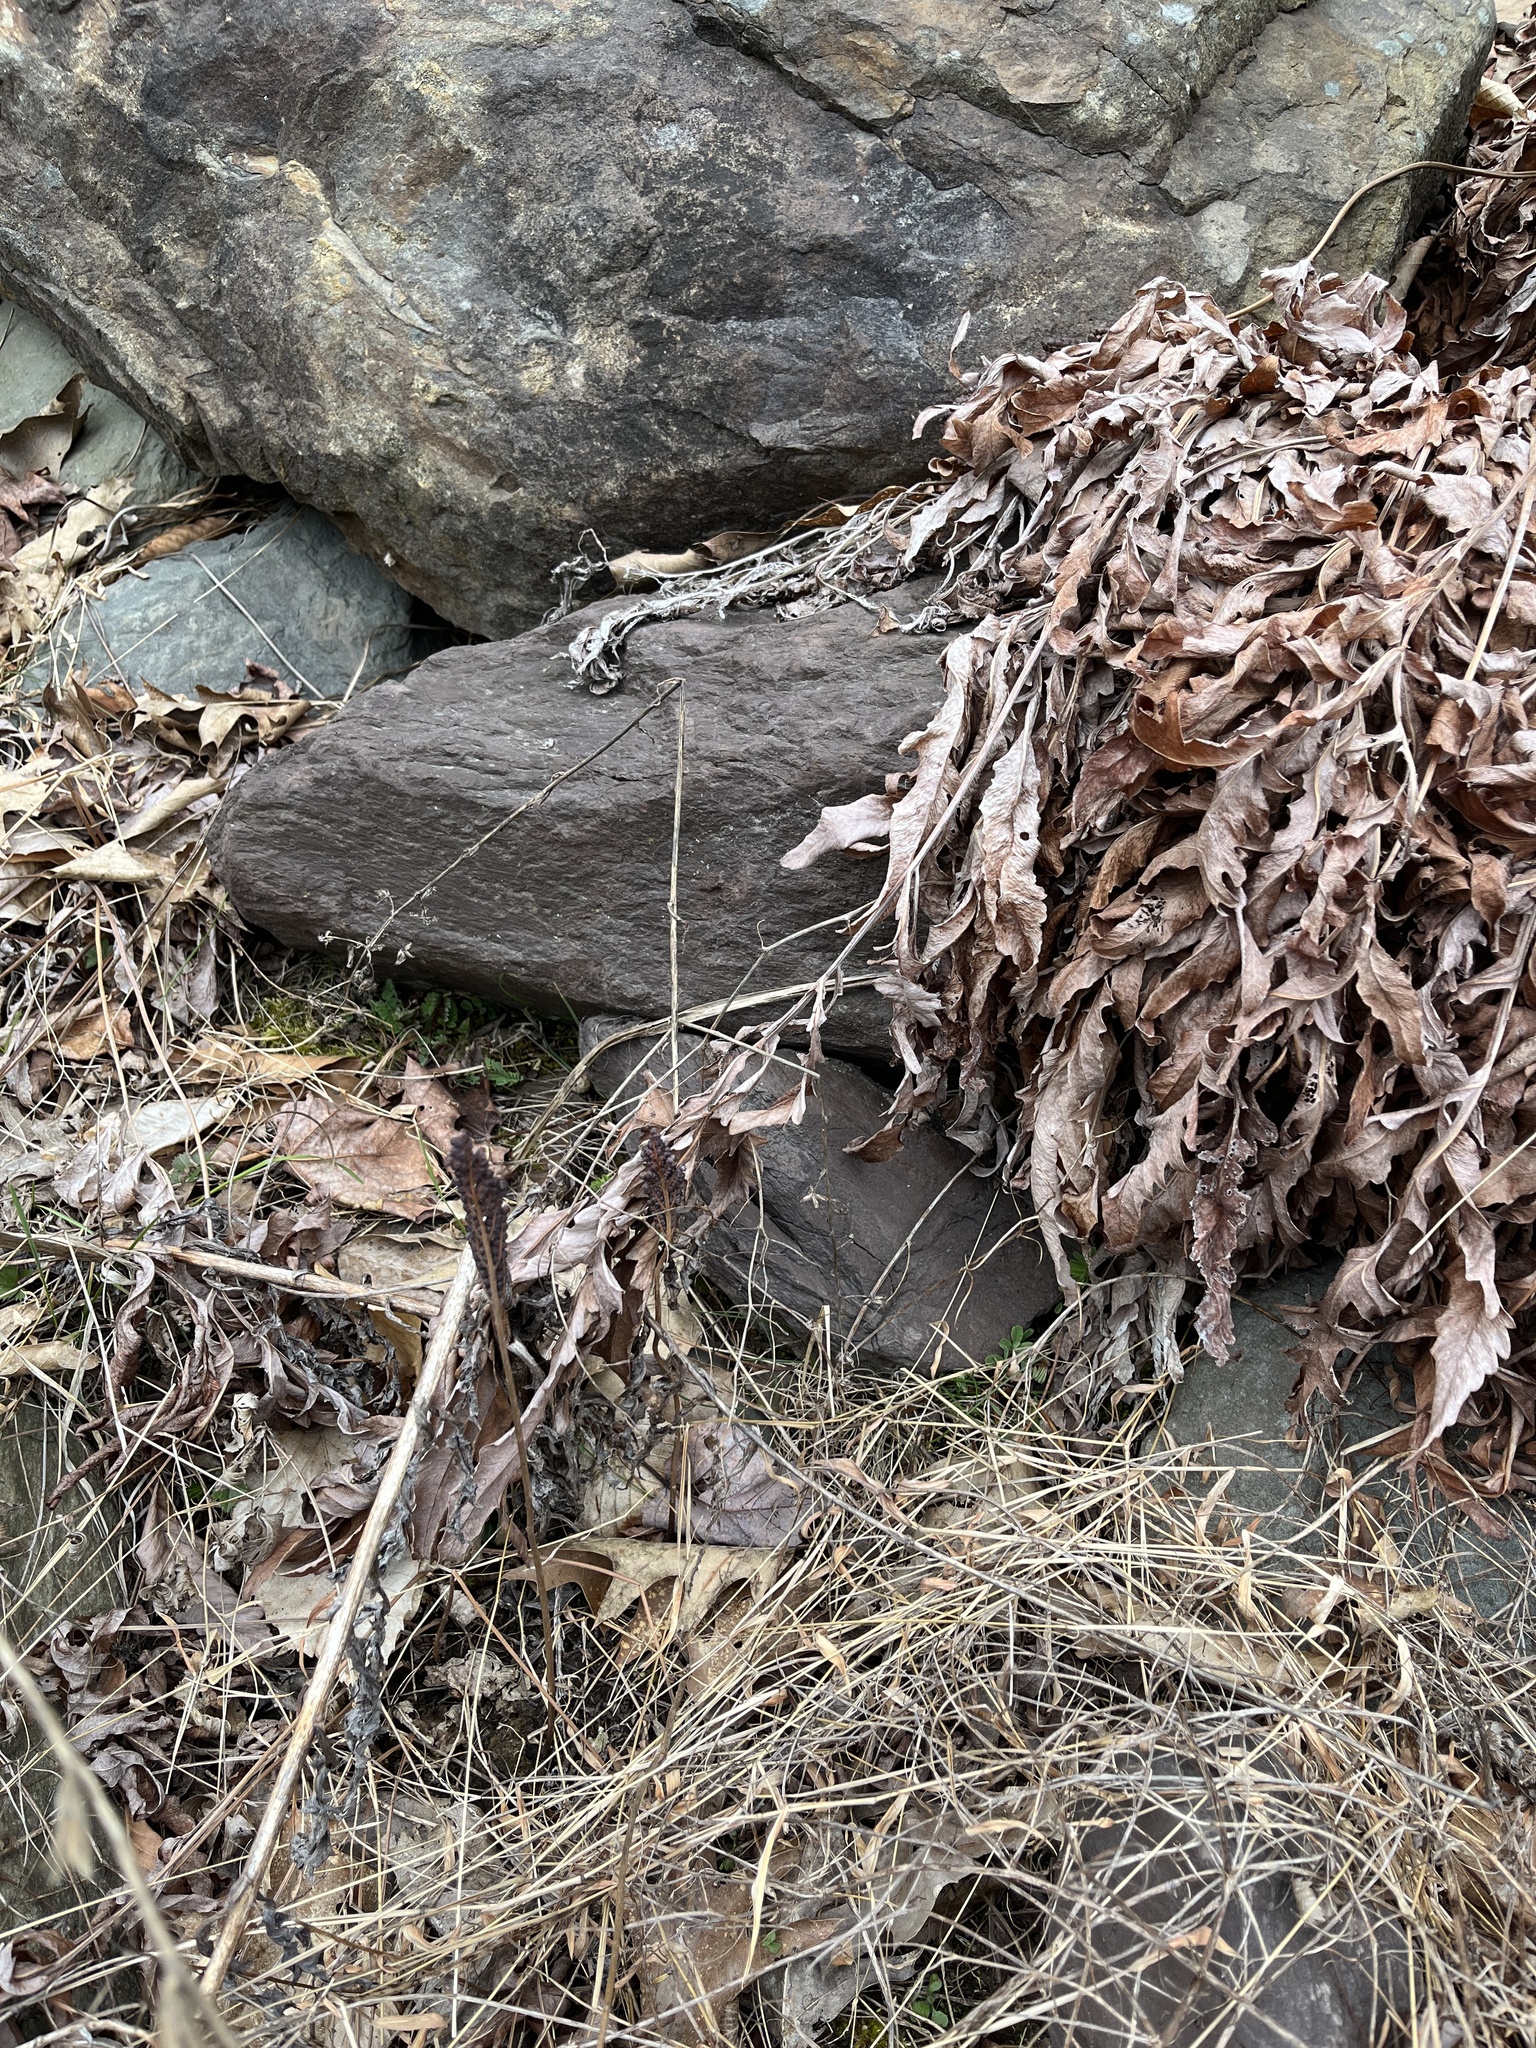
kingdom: Plantae
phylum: Tracheophyta
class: Polypodiopsida
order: Polypodiales
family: Onocleaceae
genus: Onoclea
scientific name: Onoclea sensibilis
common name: Sensitive fern
